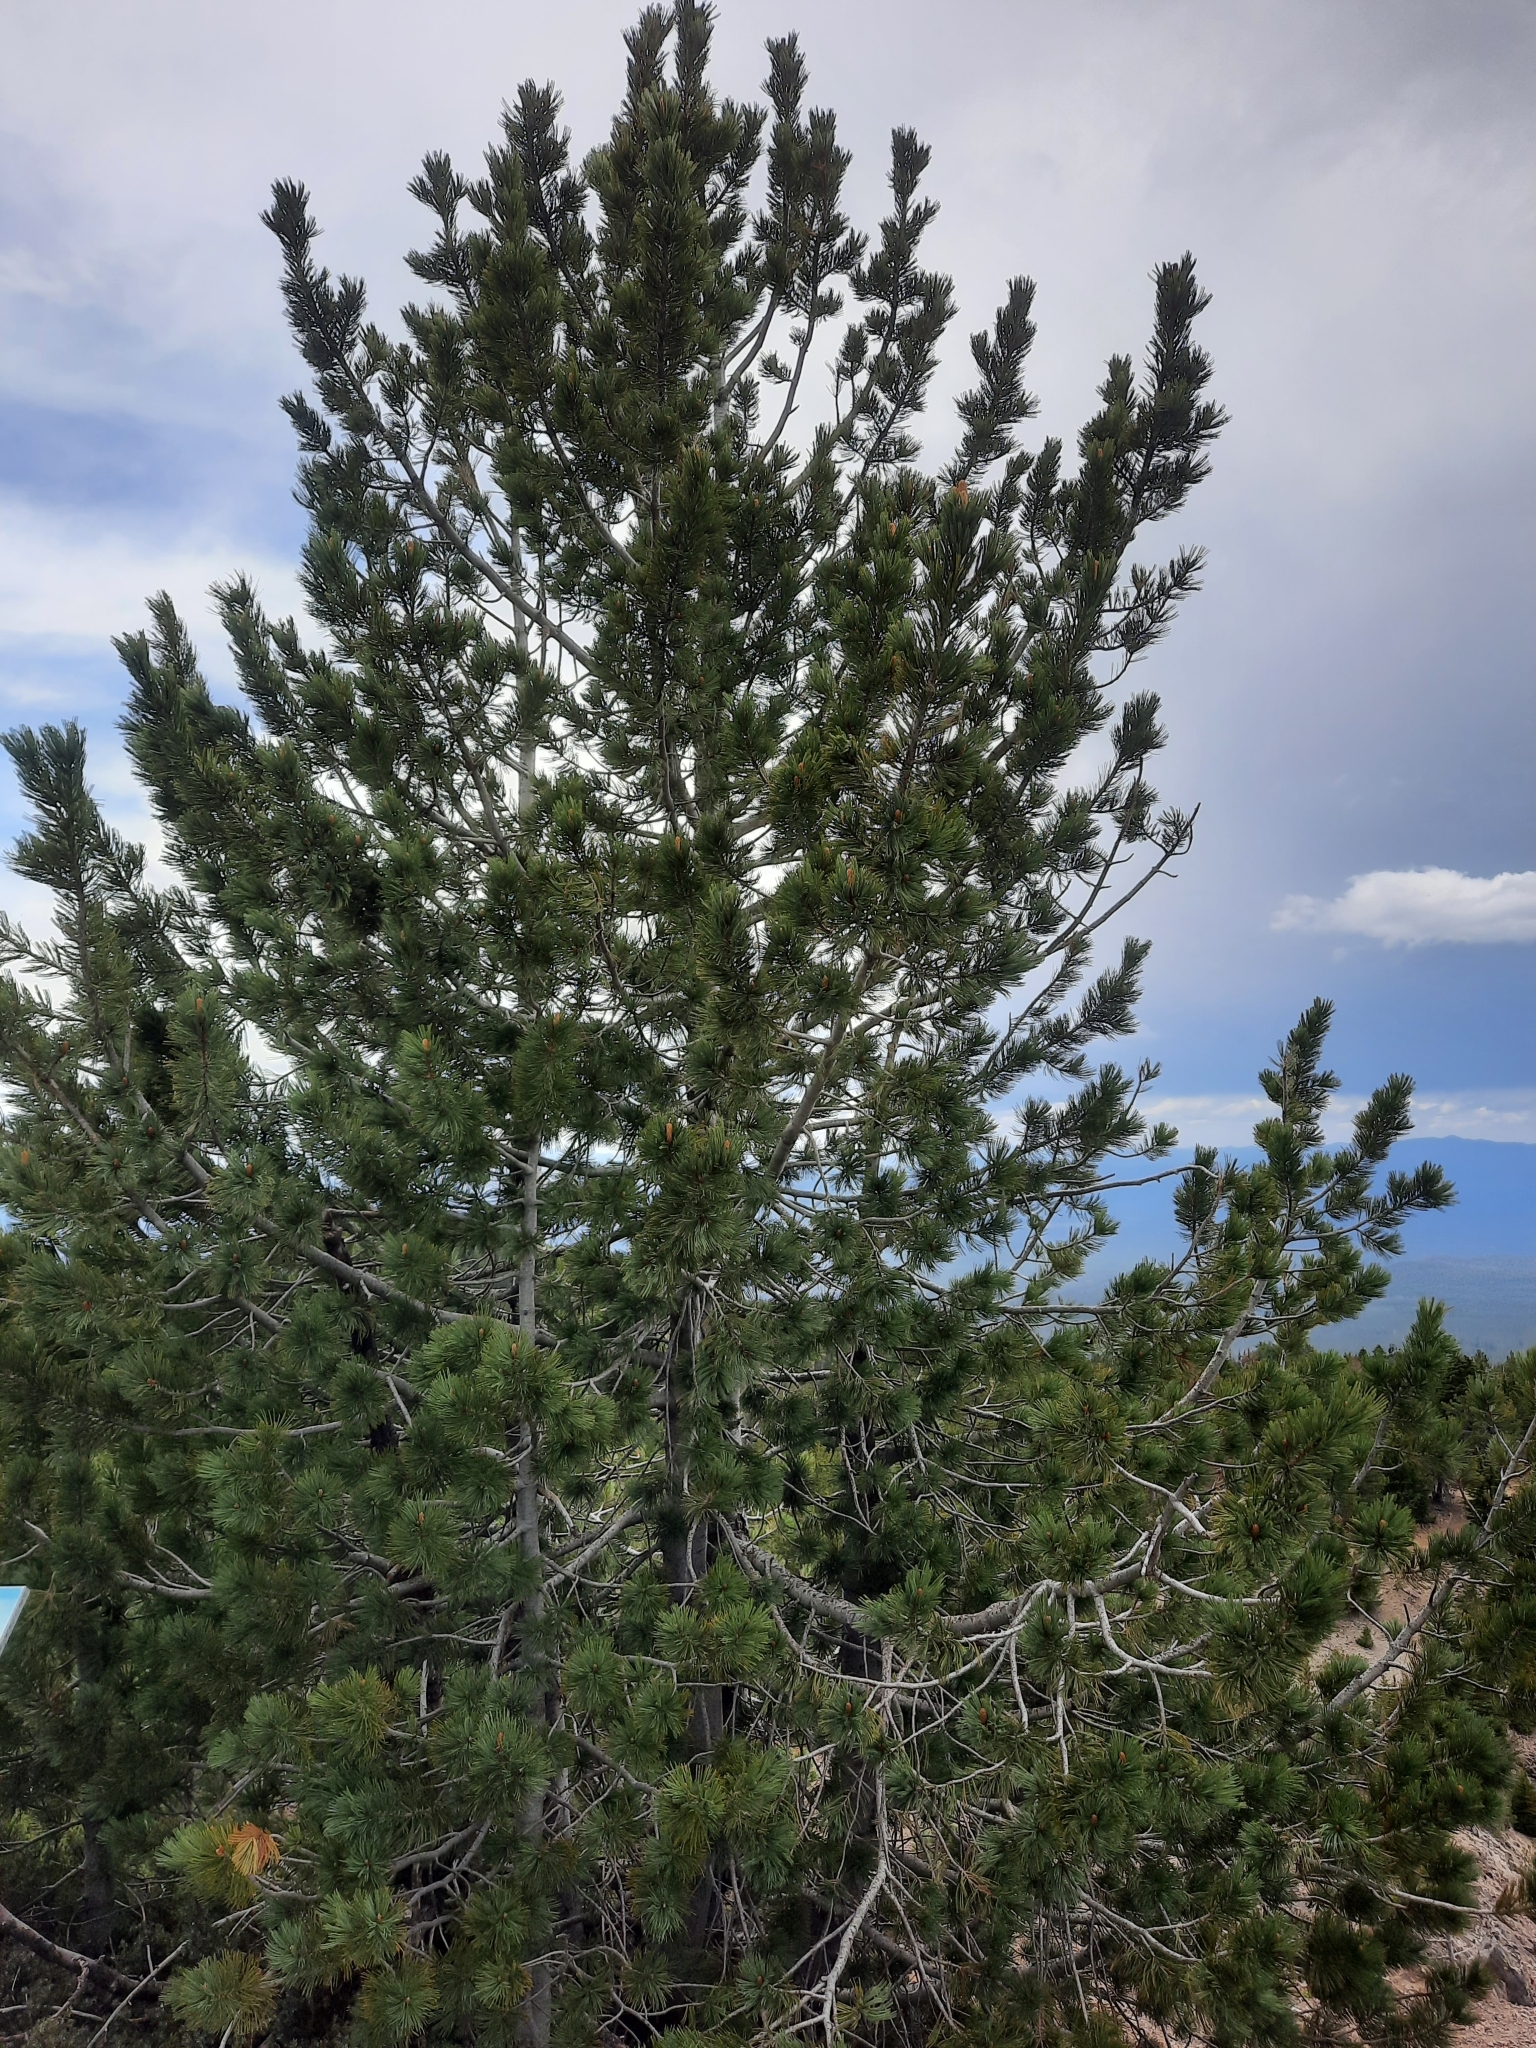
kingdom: Plantae
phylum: Tracheophyta
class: Pinopsida
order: Pinales
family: Pinaceae
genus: Pinus
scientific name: Pinus albicaulis
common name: Whitebark pine
